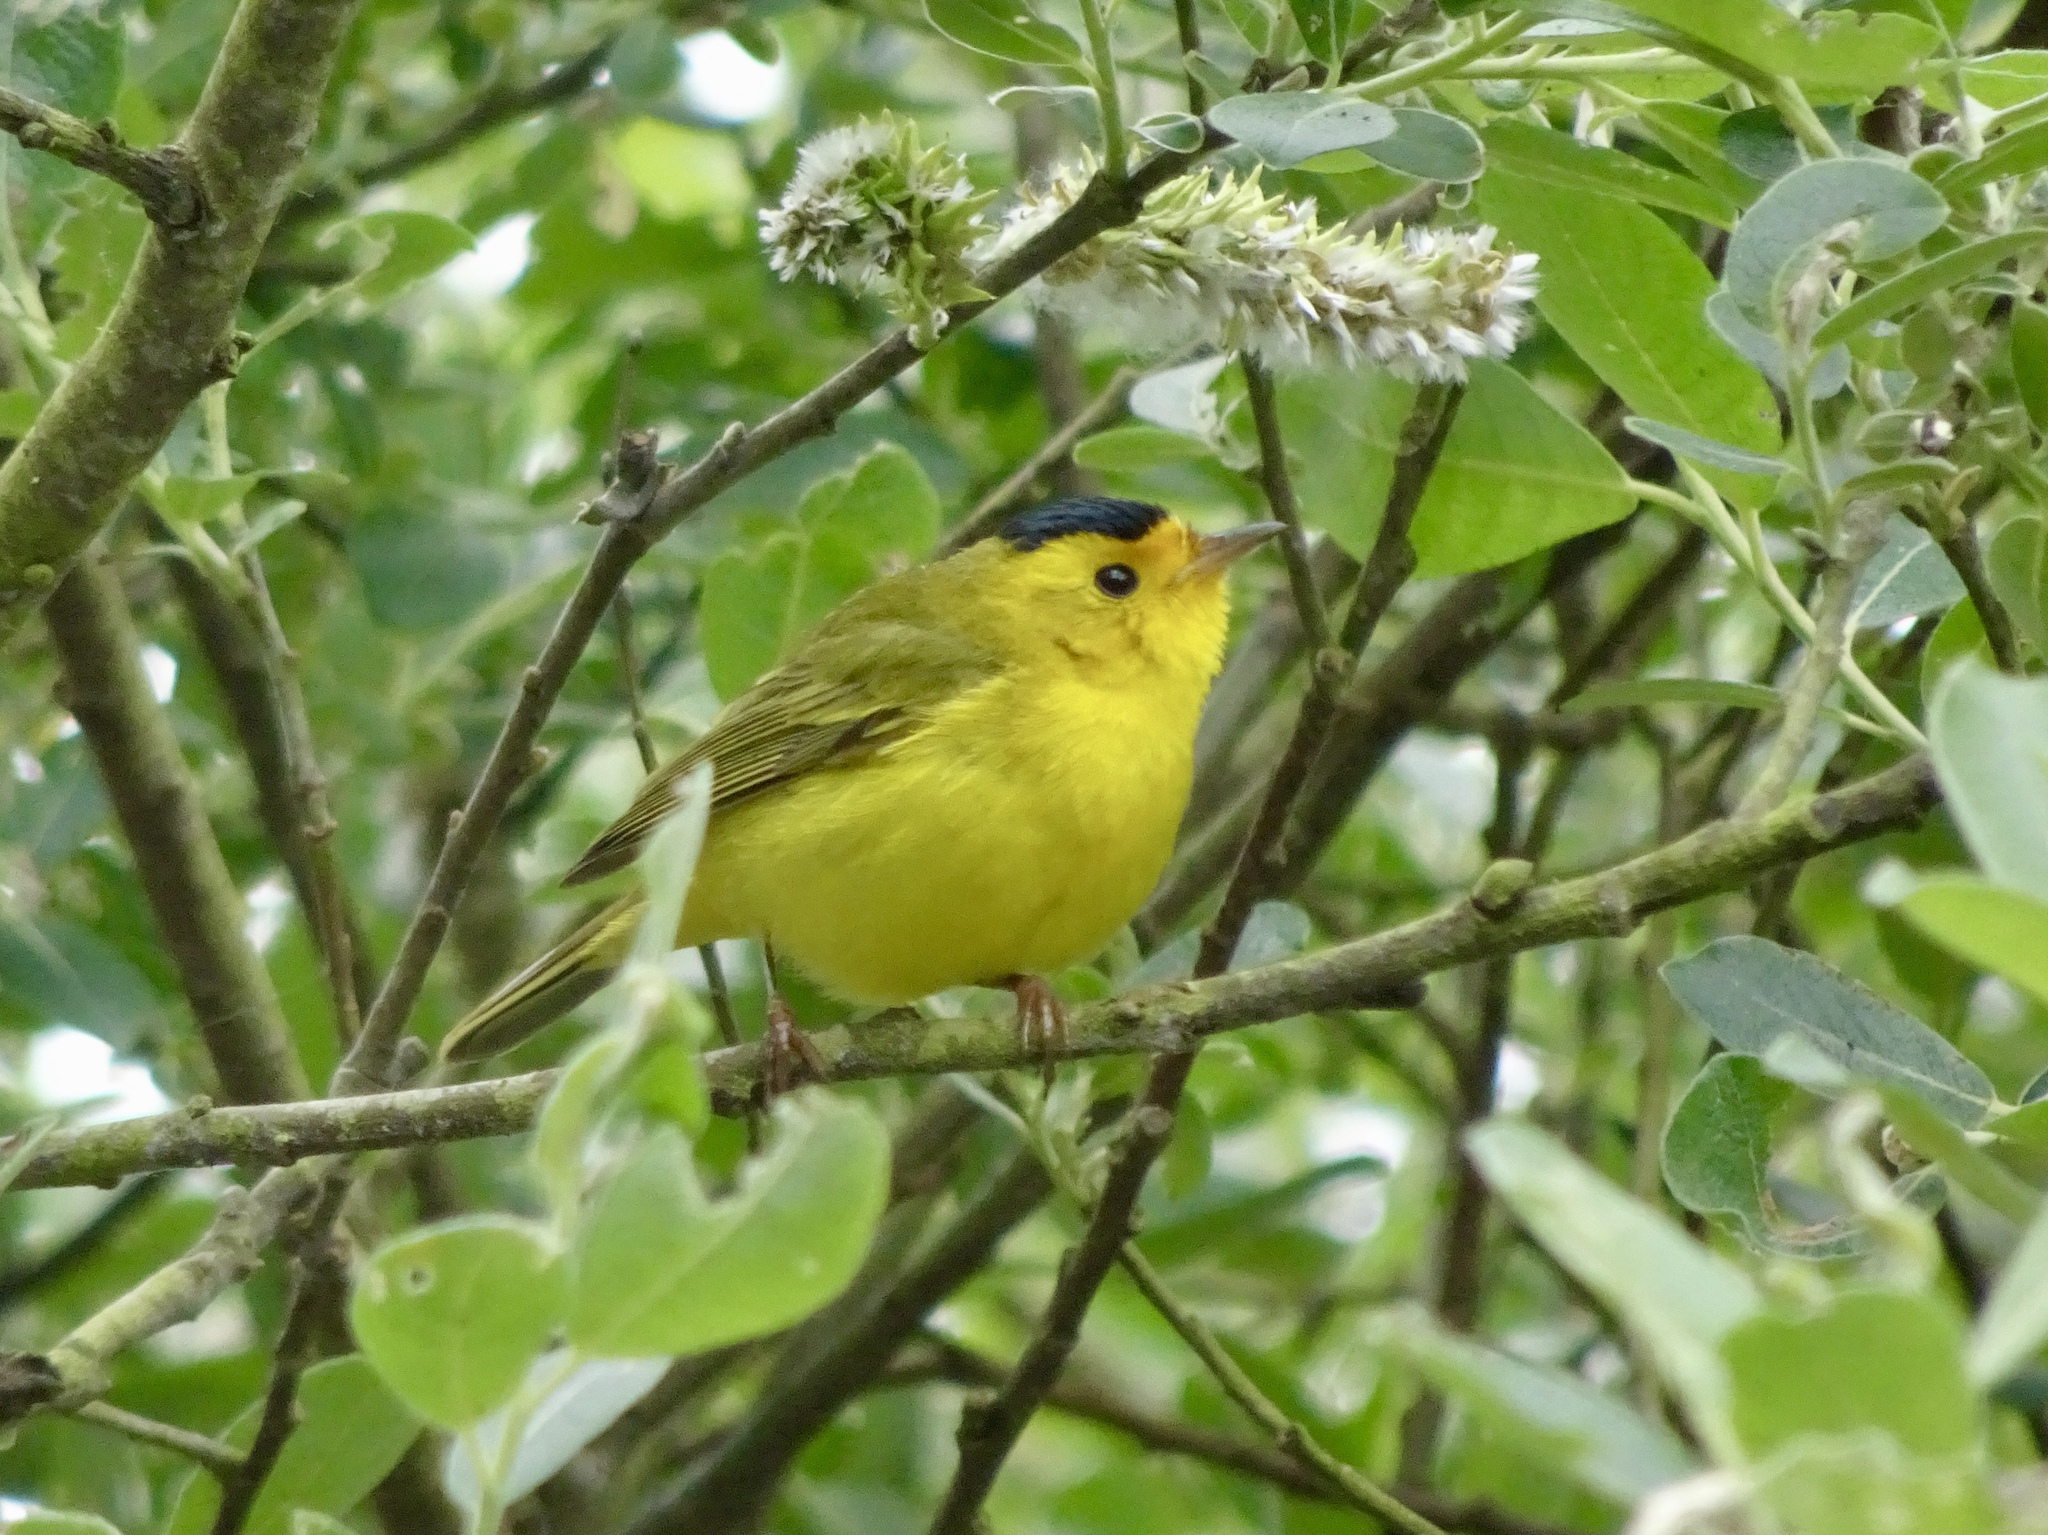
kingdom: Animalia
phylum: Chordata
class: Aves
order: Passeriformes
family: Parulidae
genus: Cardellina
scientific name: Cardellina pusilla
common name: Wilson's warbler
